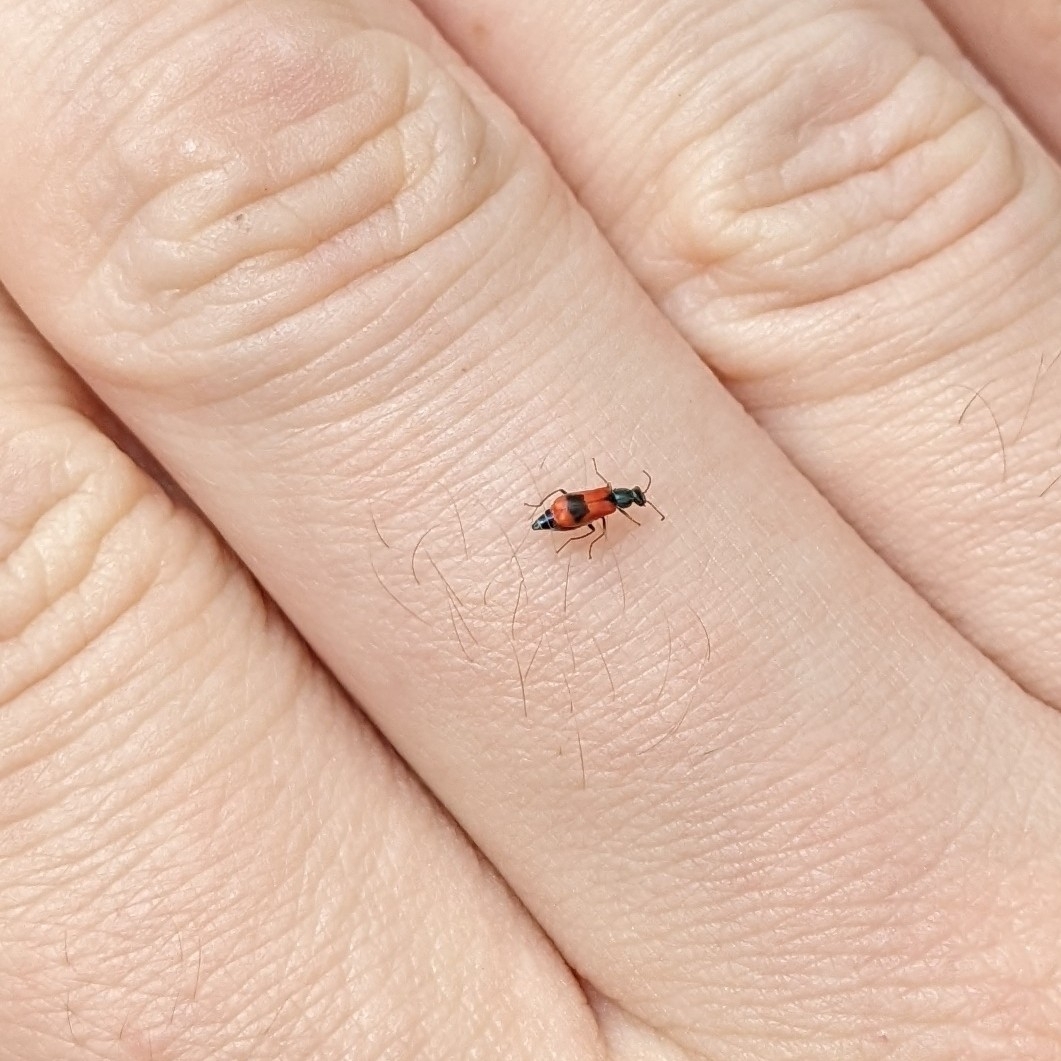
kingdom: Animalia
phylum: Arthropoda
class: Insecta
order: Coleoptera
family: Melyridae
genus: Anthocomus
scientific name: Anthocomus equestris
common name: Black-banded soft-winged flower beetle
